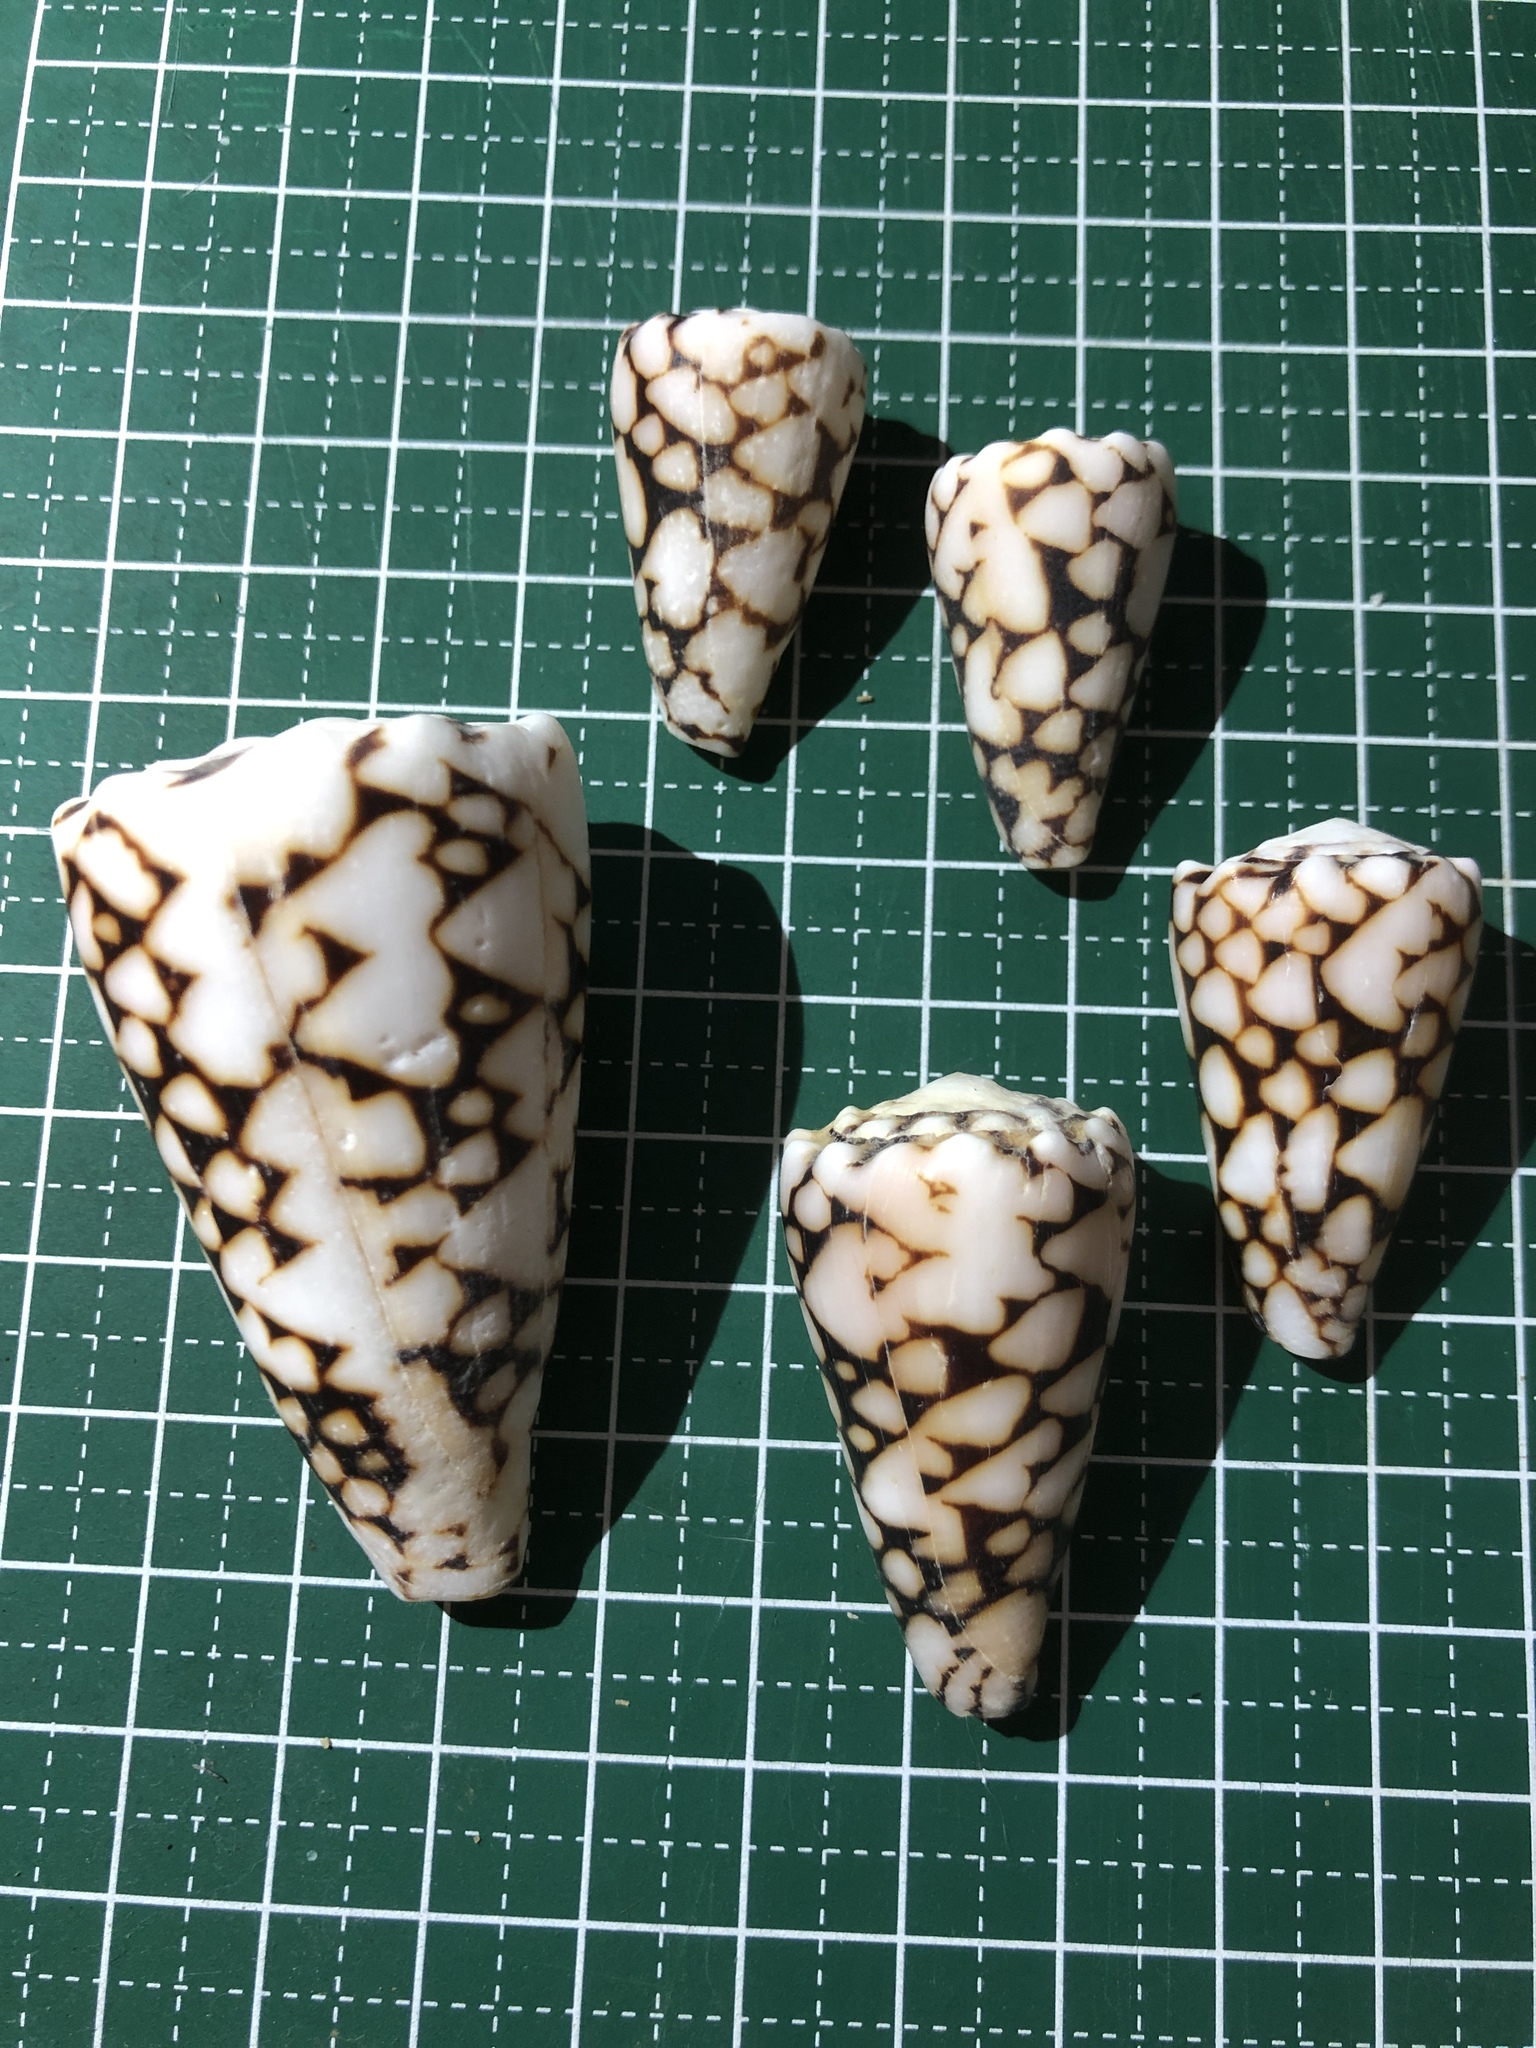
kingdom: Animalia
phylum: Mollusca
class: Gastropoda
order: Neogastropoda
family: Conidae
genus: Conus
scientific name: Conus bandanus
